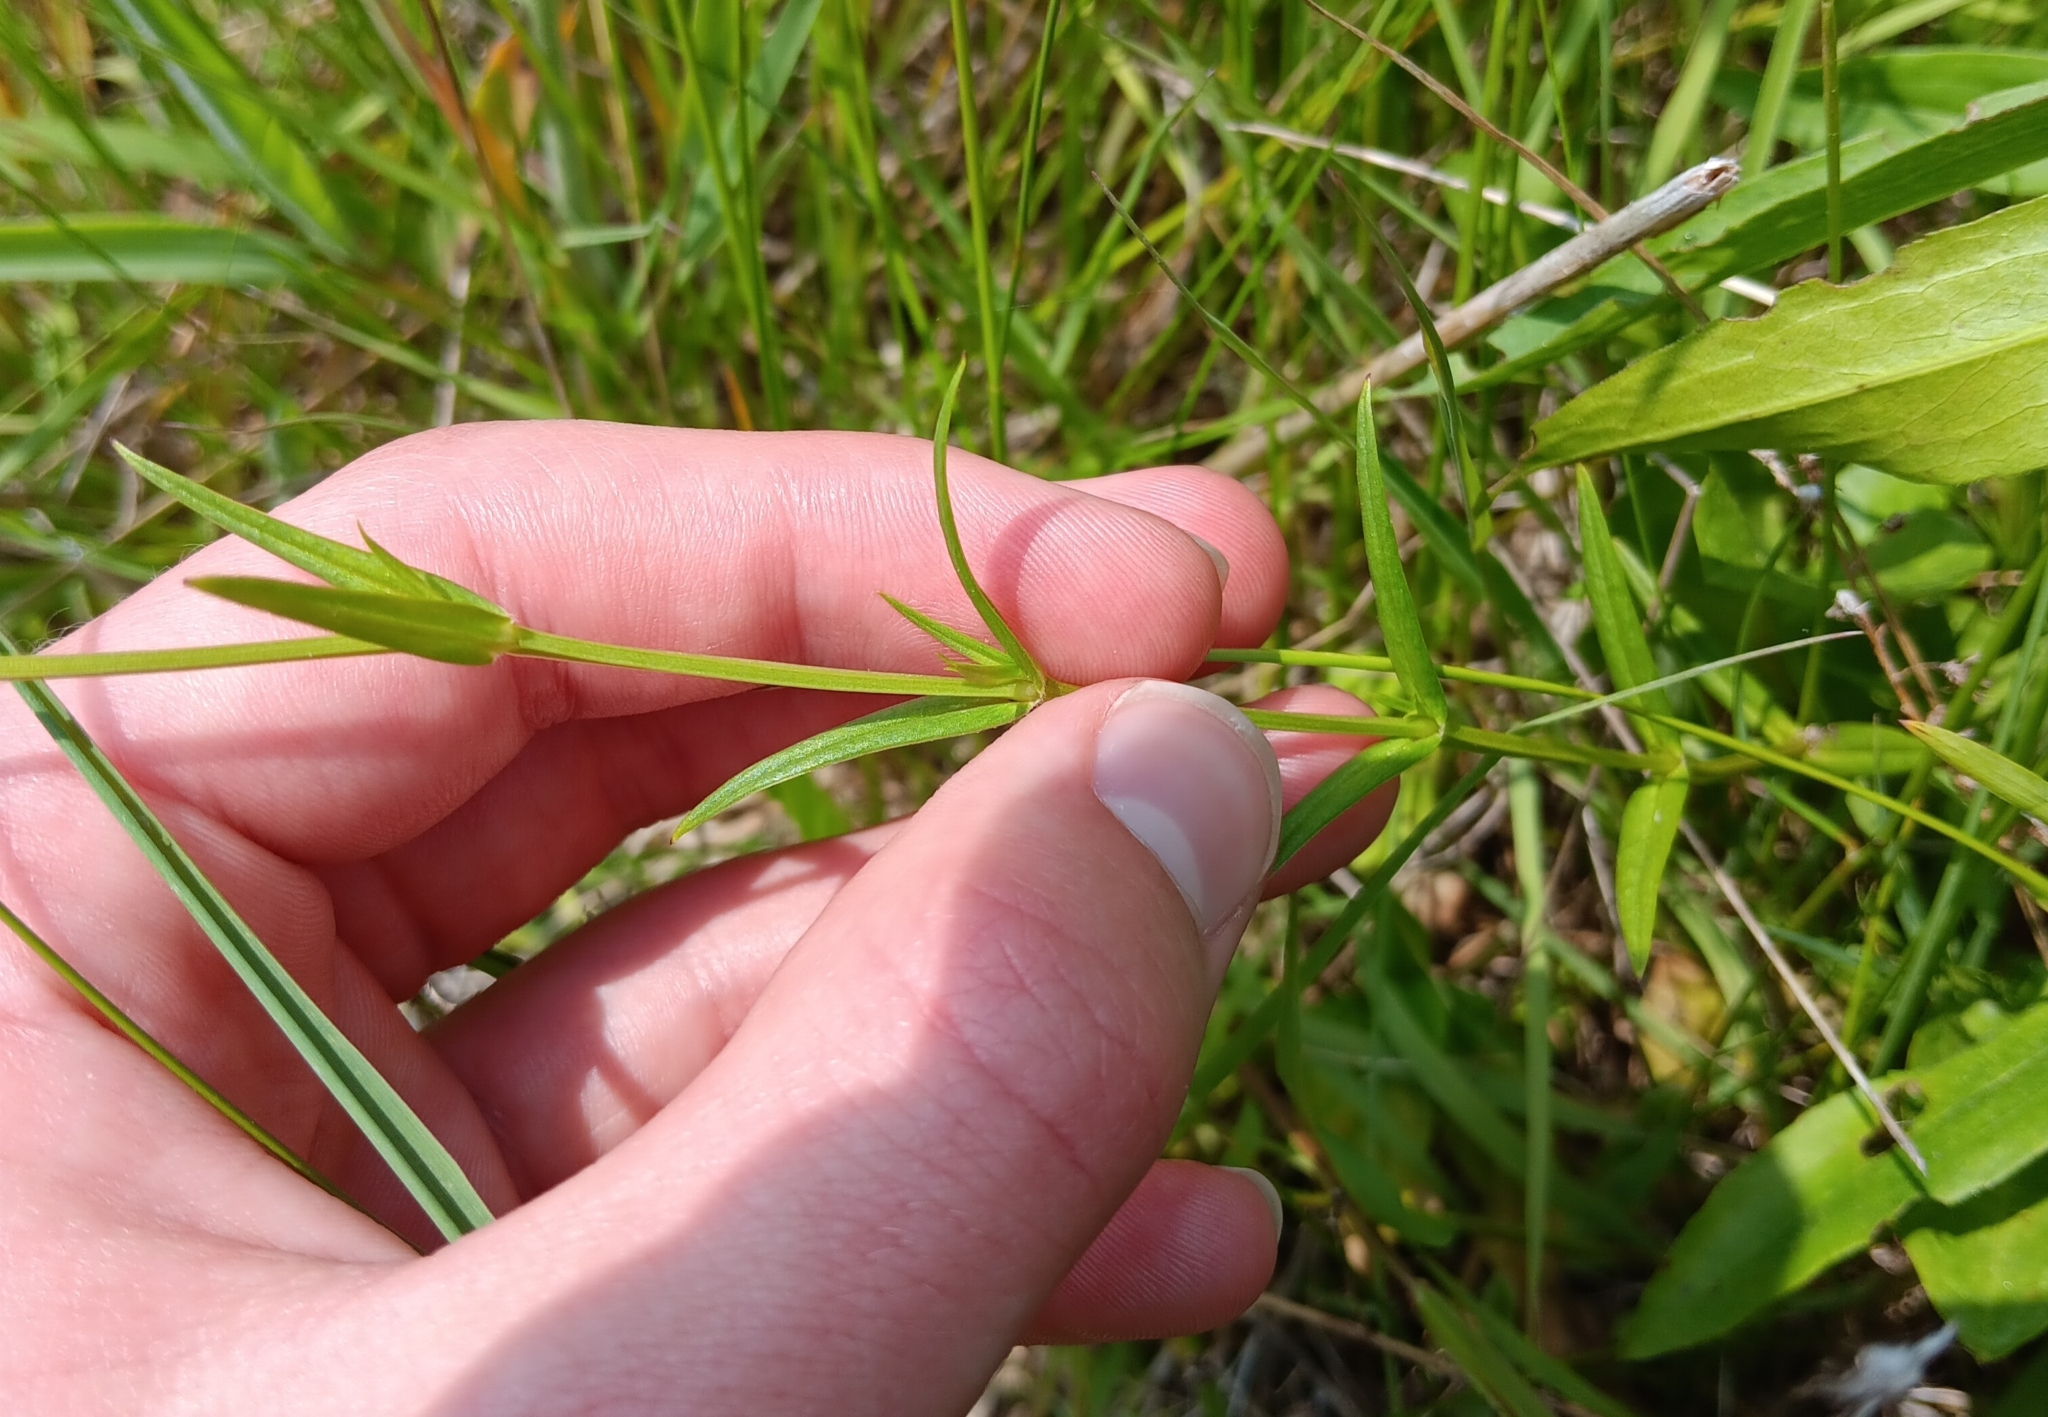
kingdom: Plantae
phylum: Tracheophyta
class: Magnoliopsida
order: Caryophyllales
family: Caryophyllaceae
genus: Stellaria
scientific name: Stellaria graminea
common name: Grass-like starwort
